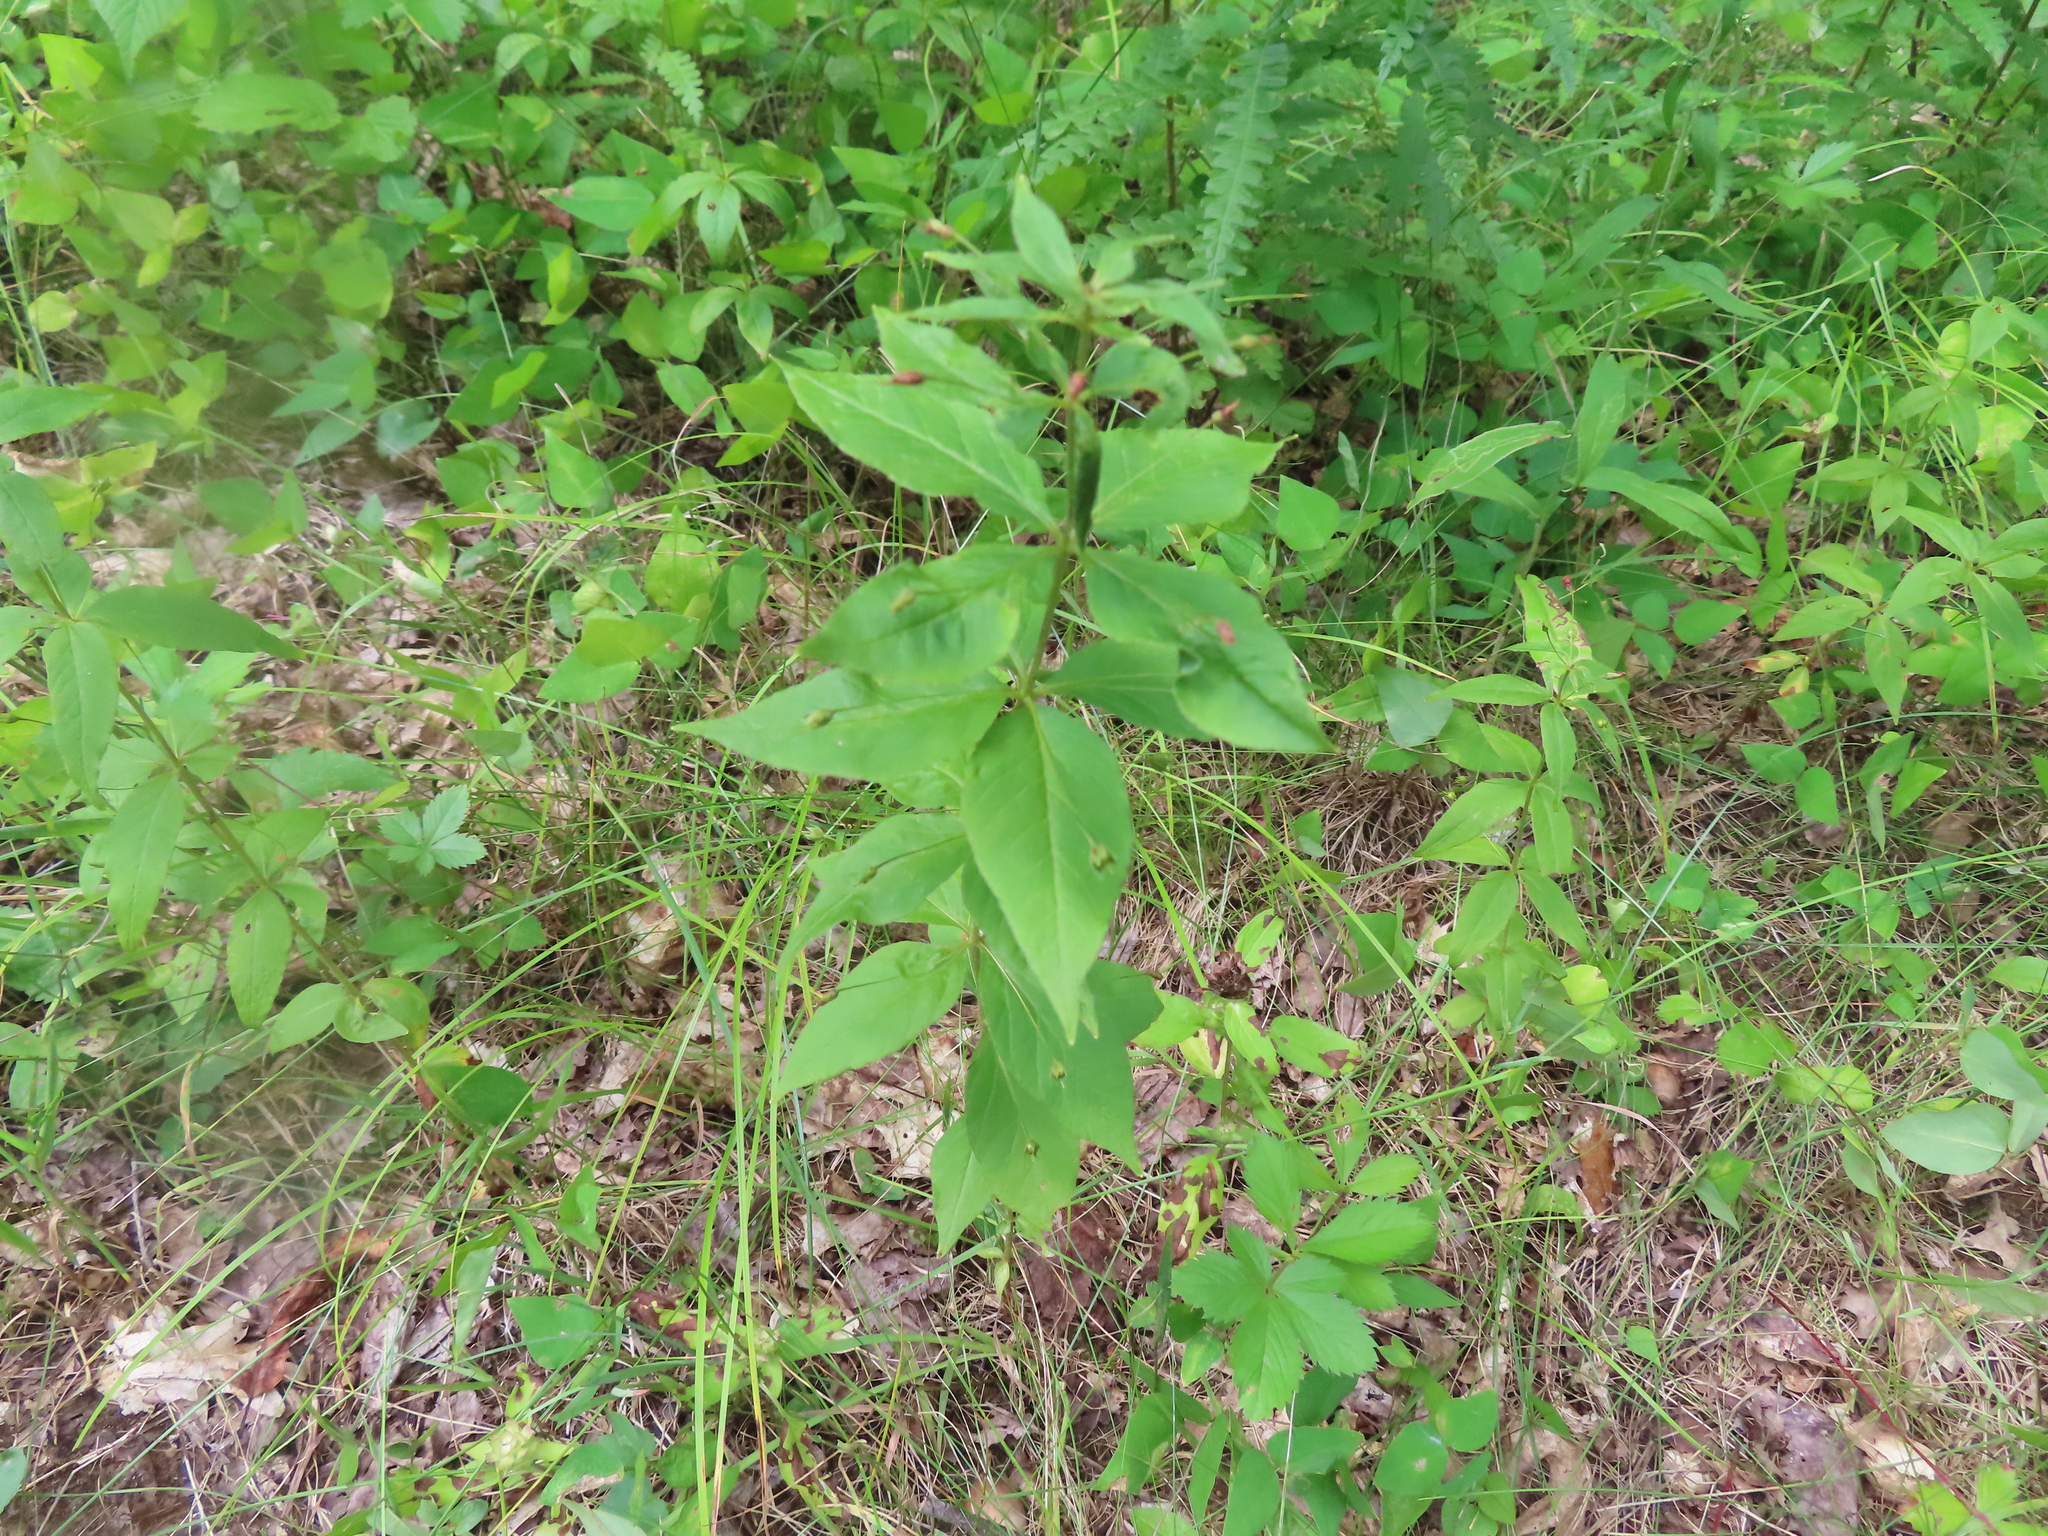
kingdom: Plantae
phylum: Tracheophyta
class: Magnoliopsida
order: Ericales
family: Primulaceae
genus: Lysimachia
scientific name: Lysimachia quadrifolia
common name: Whorled loosestrife
